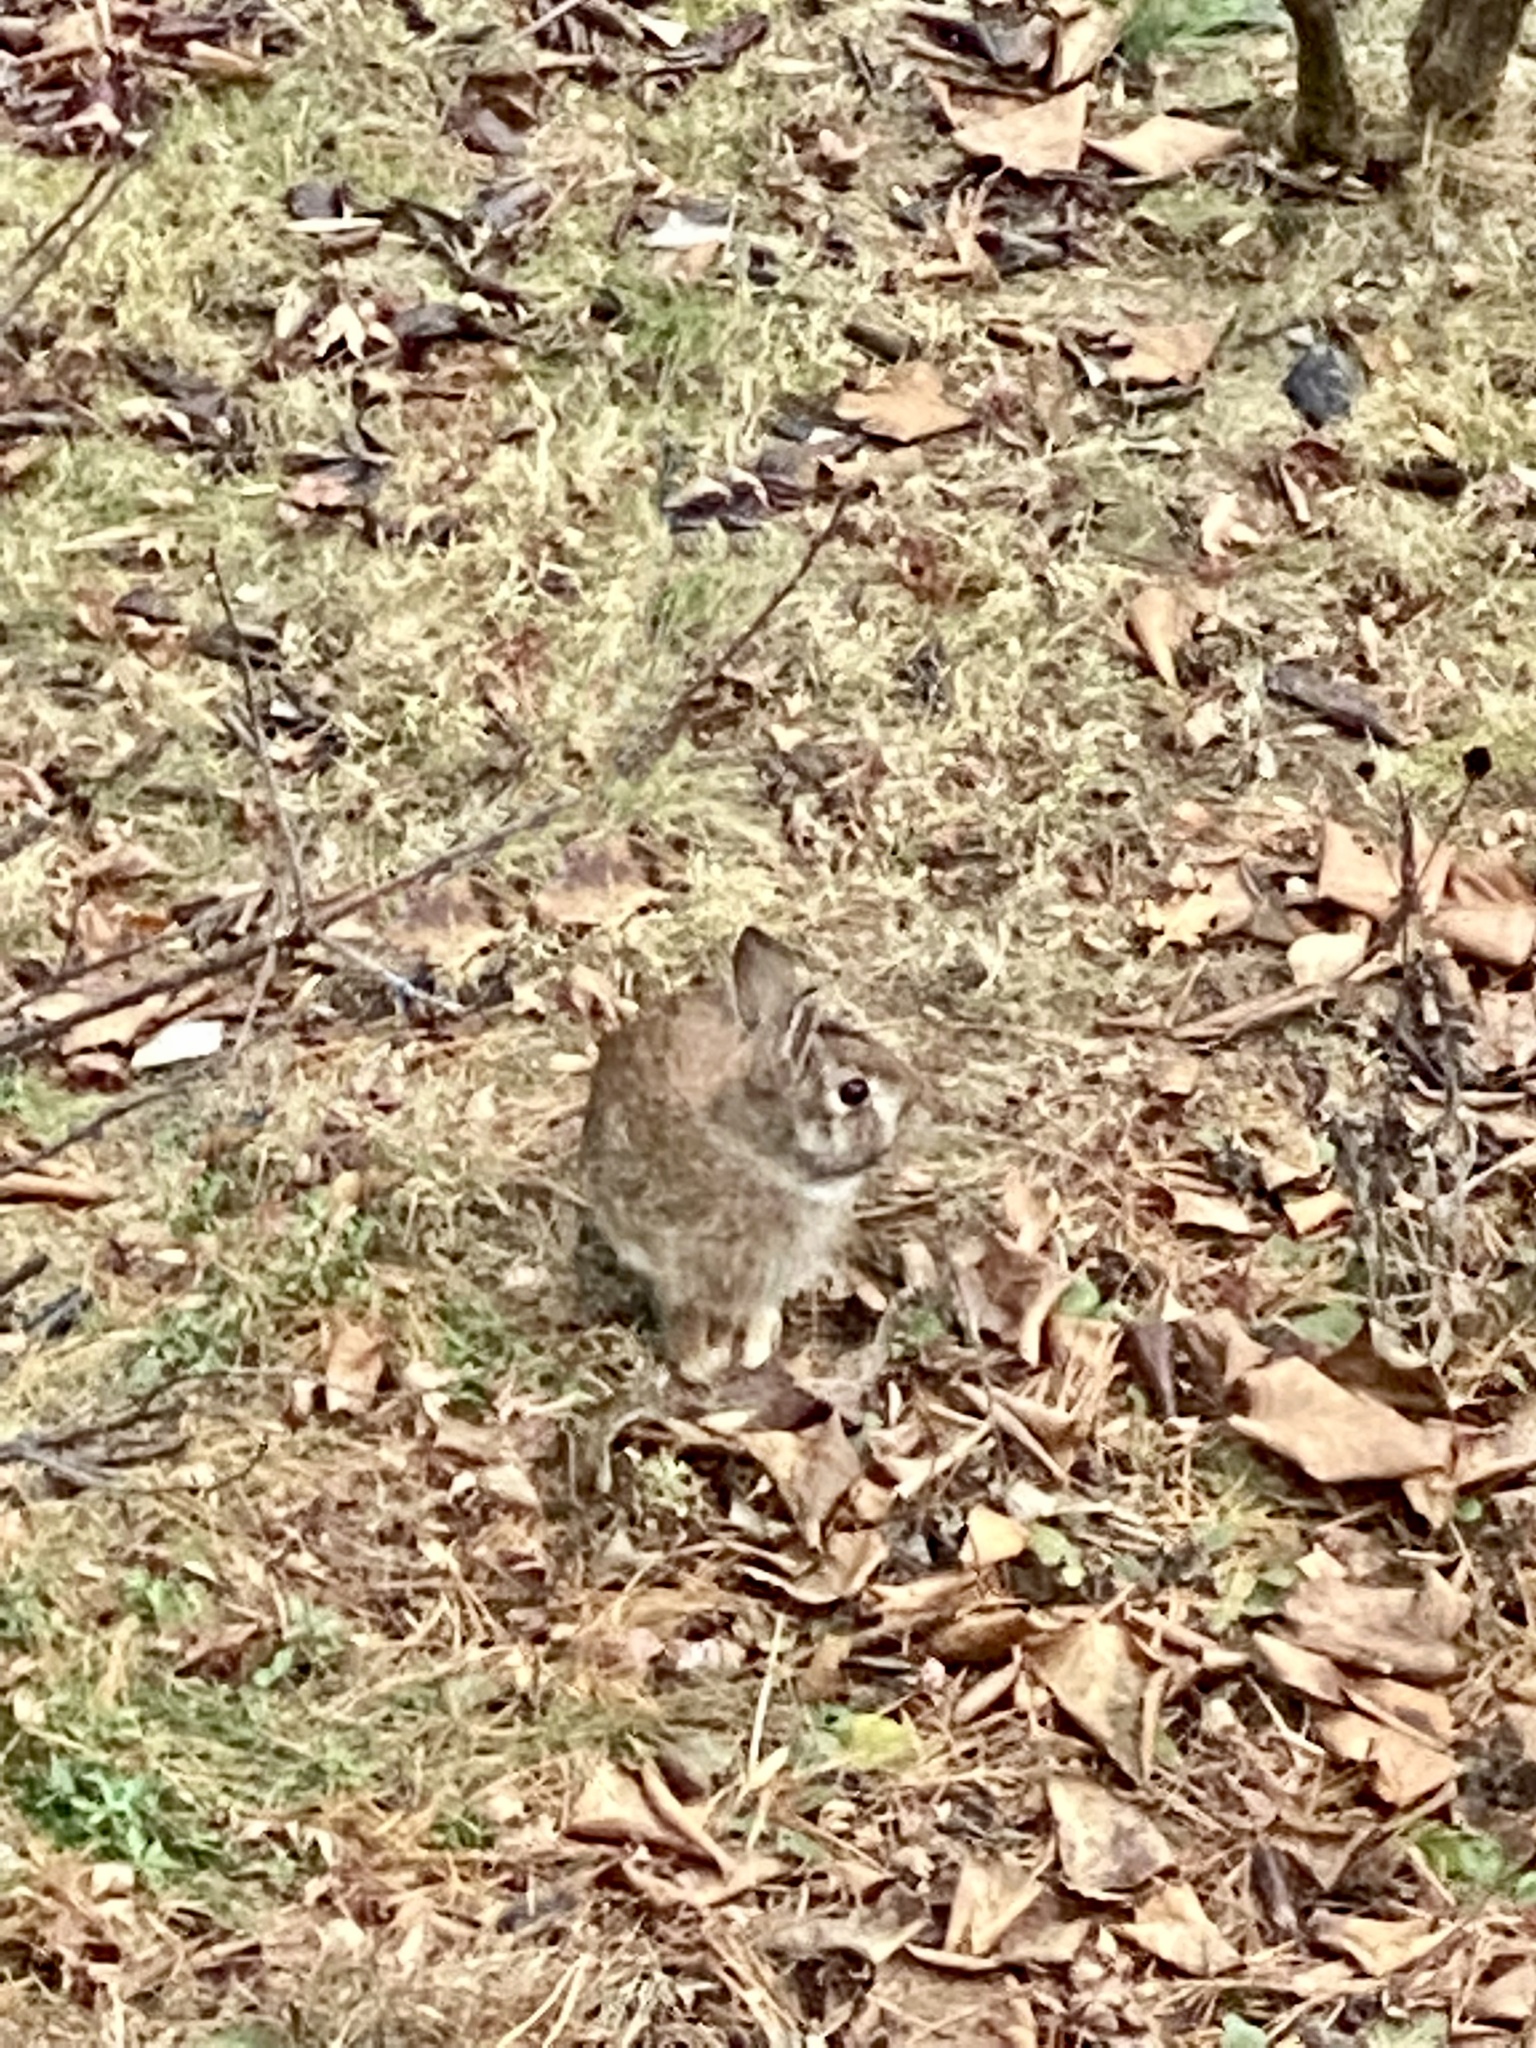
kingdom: Animalia
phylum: Chordata
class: Mammalia
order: Lagomorpha
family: Leporidae
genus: Sylvilagus
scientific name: Sylvilagus floridanus
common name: Eastern cottontail
